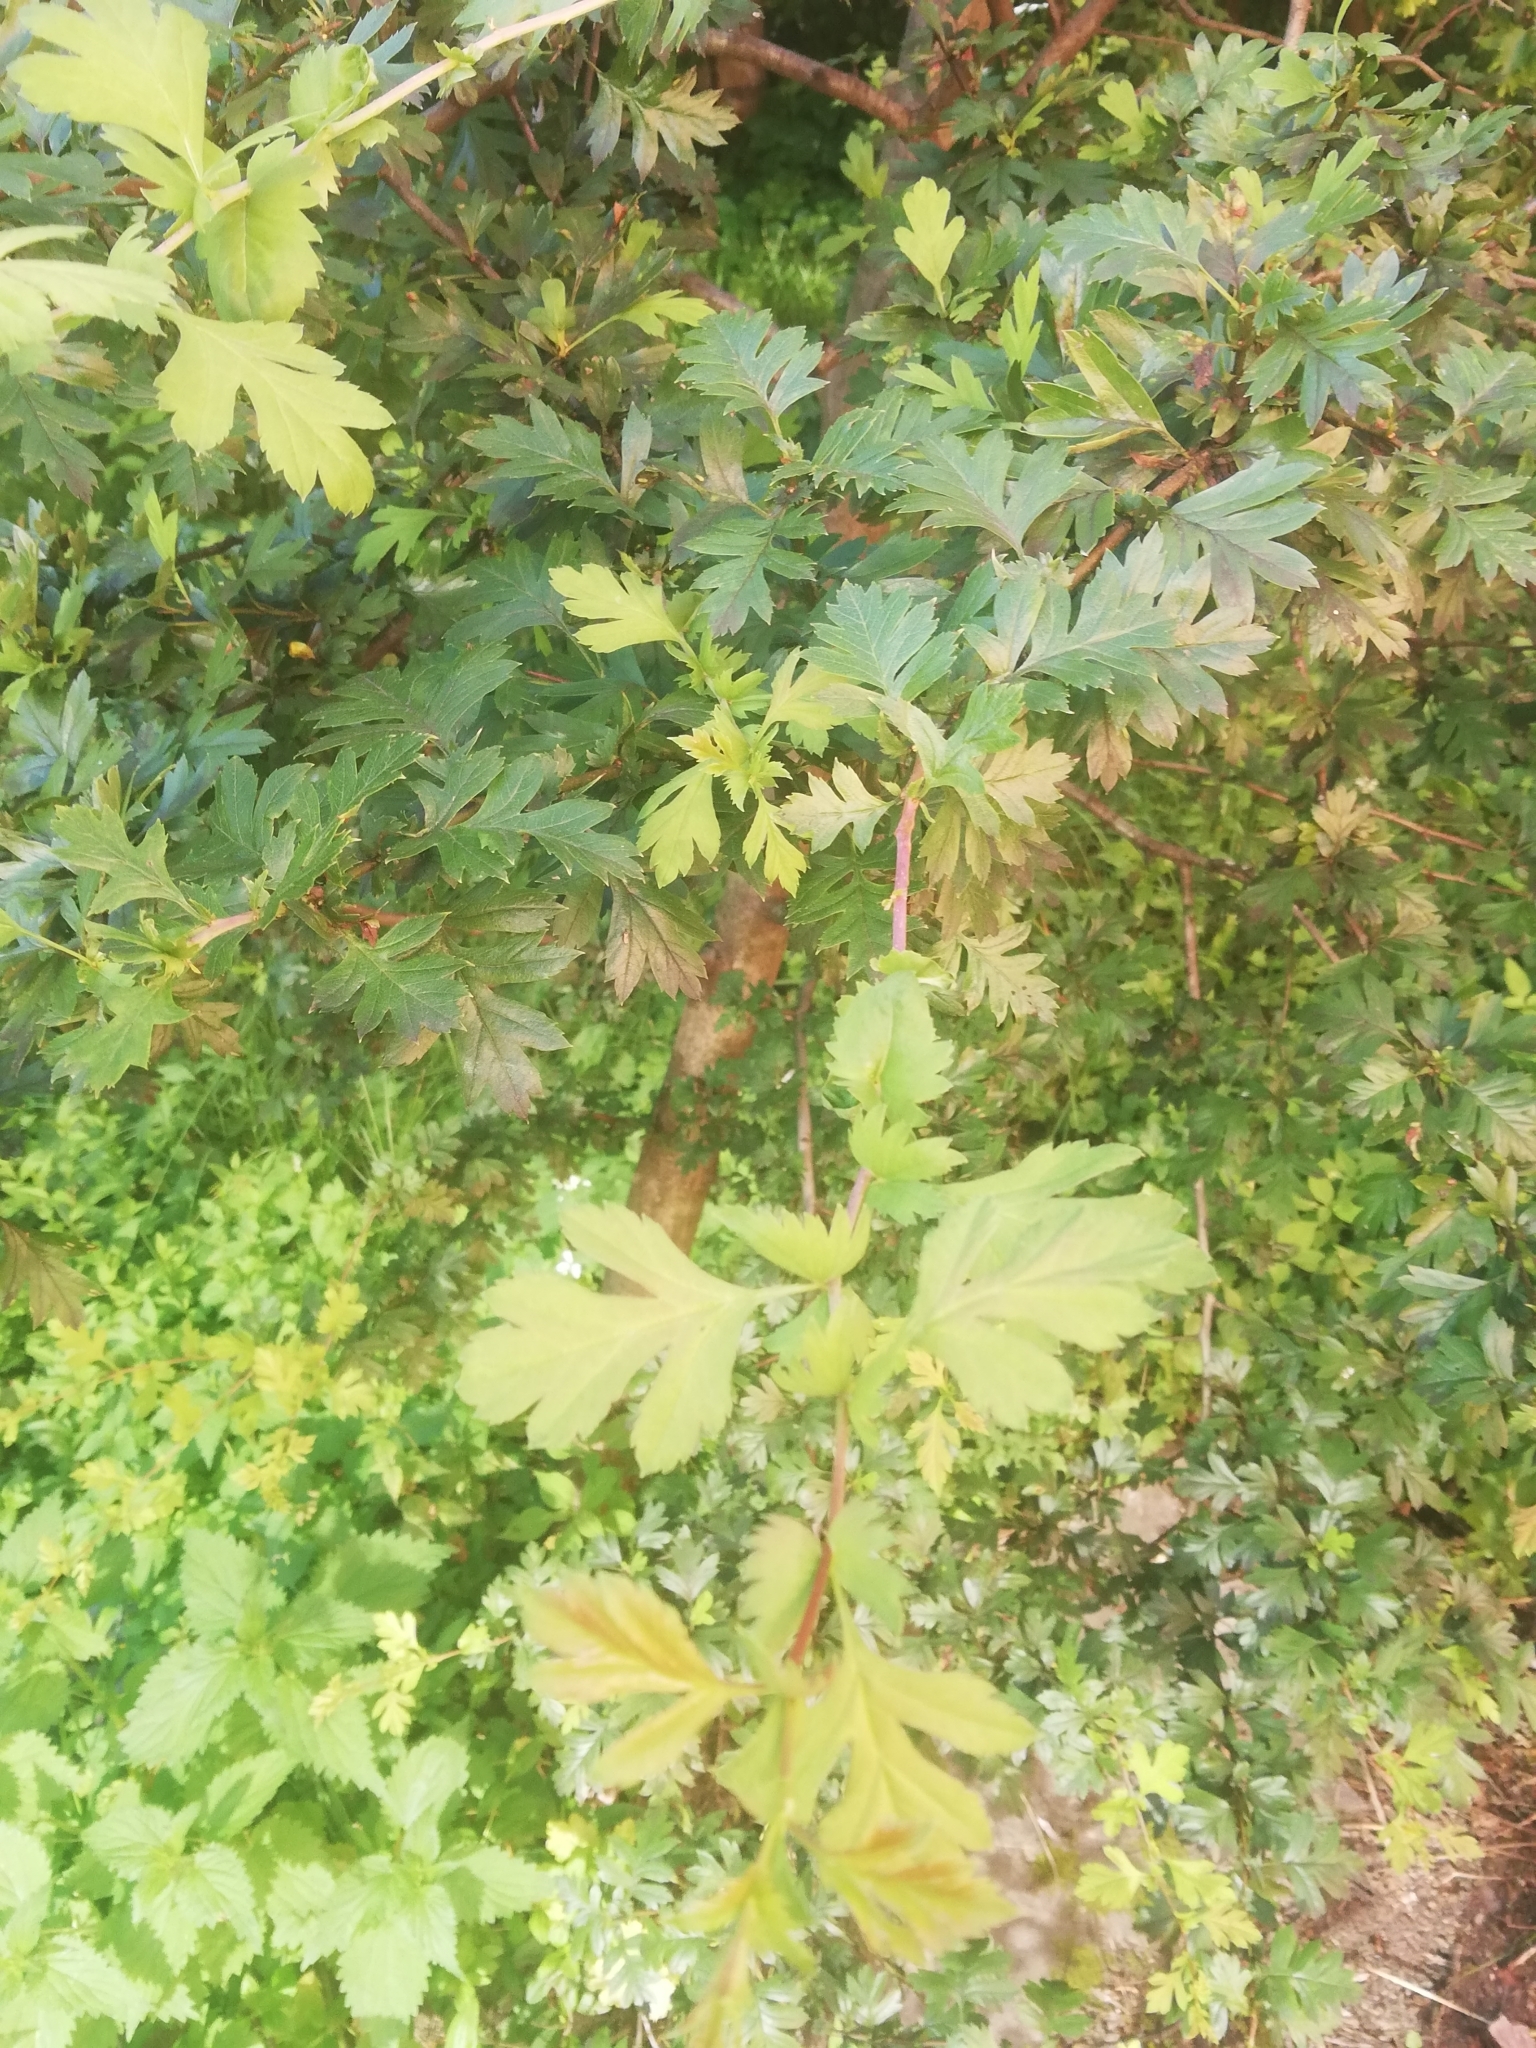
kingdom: Plantae
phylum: Tracheophyta
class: Magnoliopsida
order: Rosales
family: Rosaceae
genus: Crataegus
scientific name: Crataegus monogyna
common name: Hawthorn
